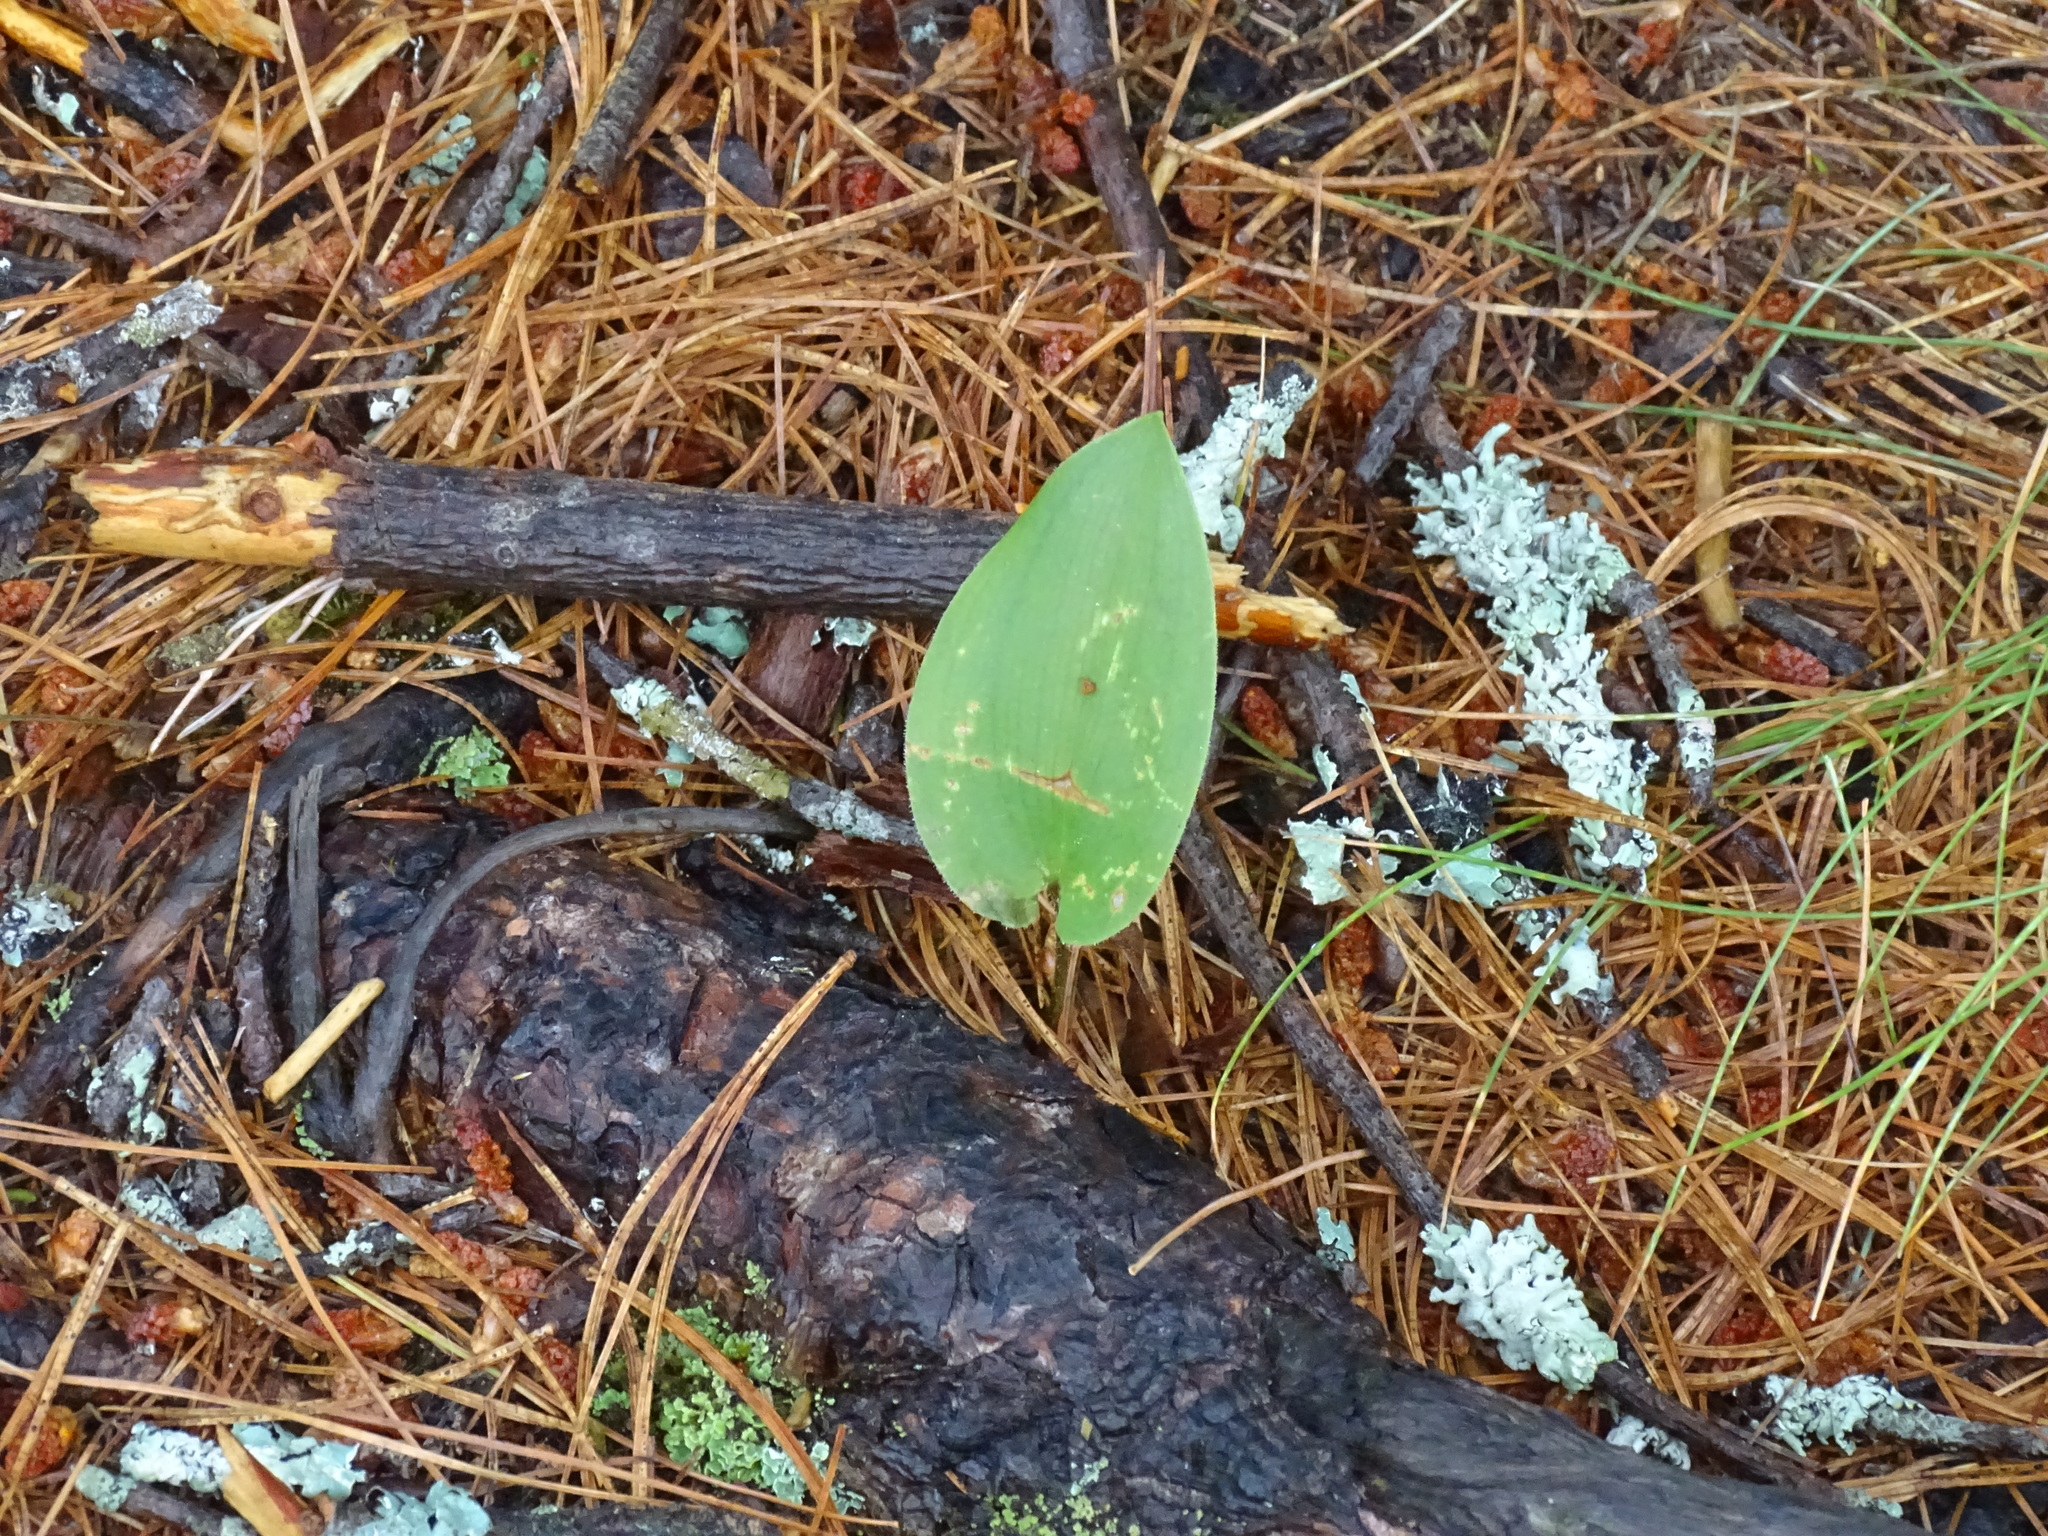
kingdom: Plantae
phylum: Tracheophyta
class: Liliopsida
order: Asparagales
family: Asparagaceae
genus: Maianthemum
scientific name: Maianthemum canadense
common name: False lily-of-the-valley
